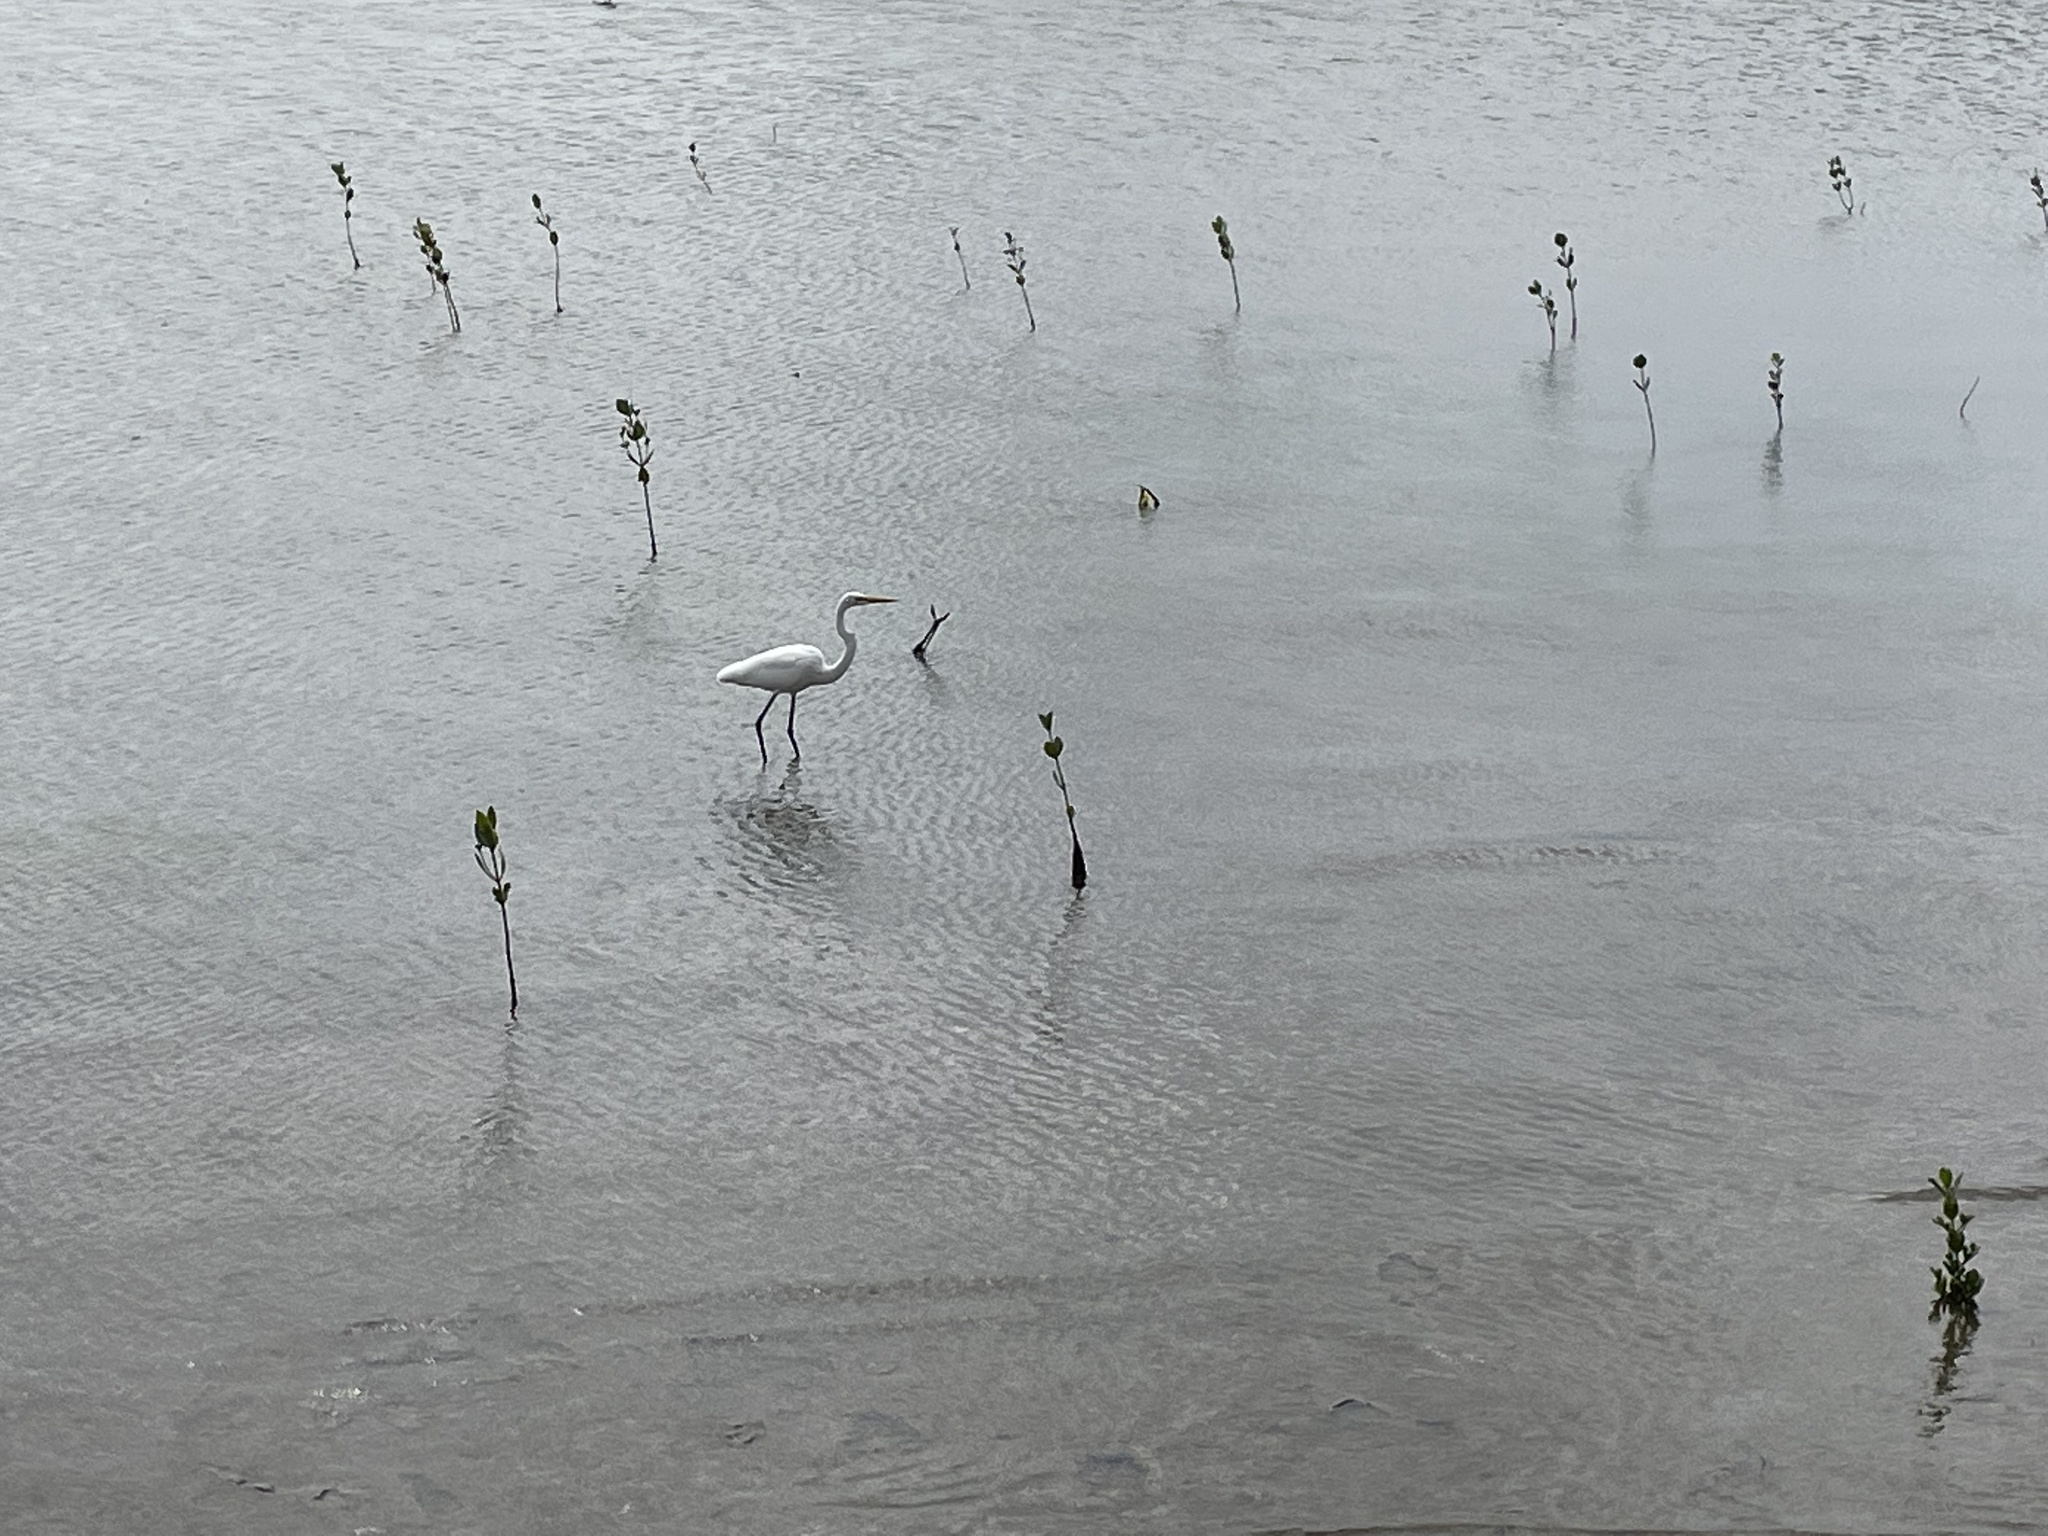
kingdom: Animalia
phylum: Chordata
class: Aves
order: Pelecaniformes
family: Ardeidae
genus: Ardea
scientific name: Ardea alba
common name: Great egret
